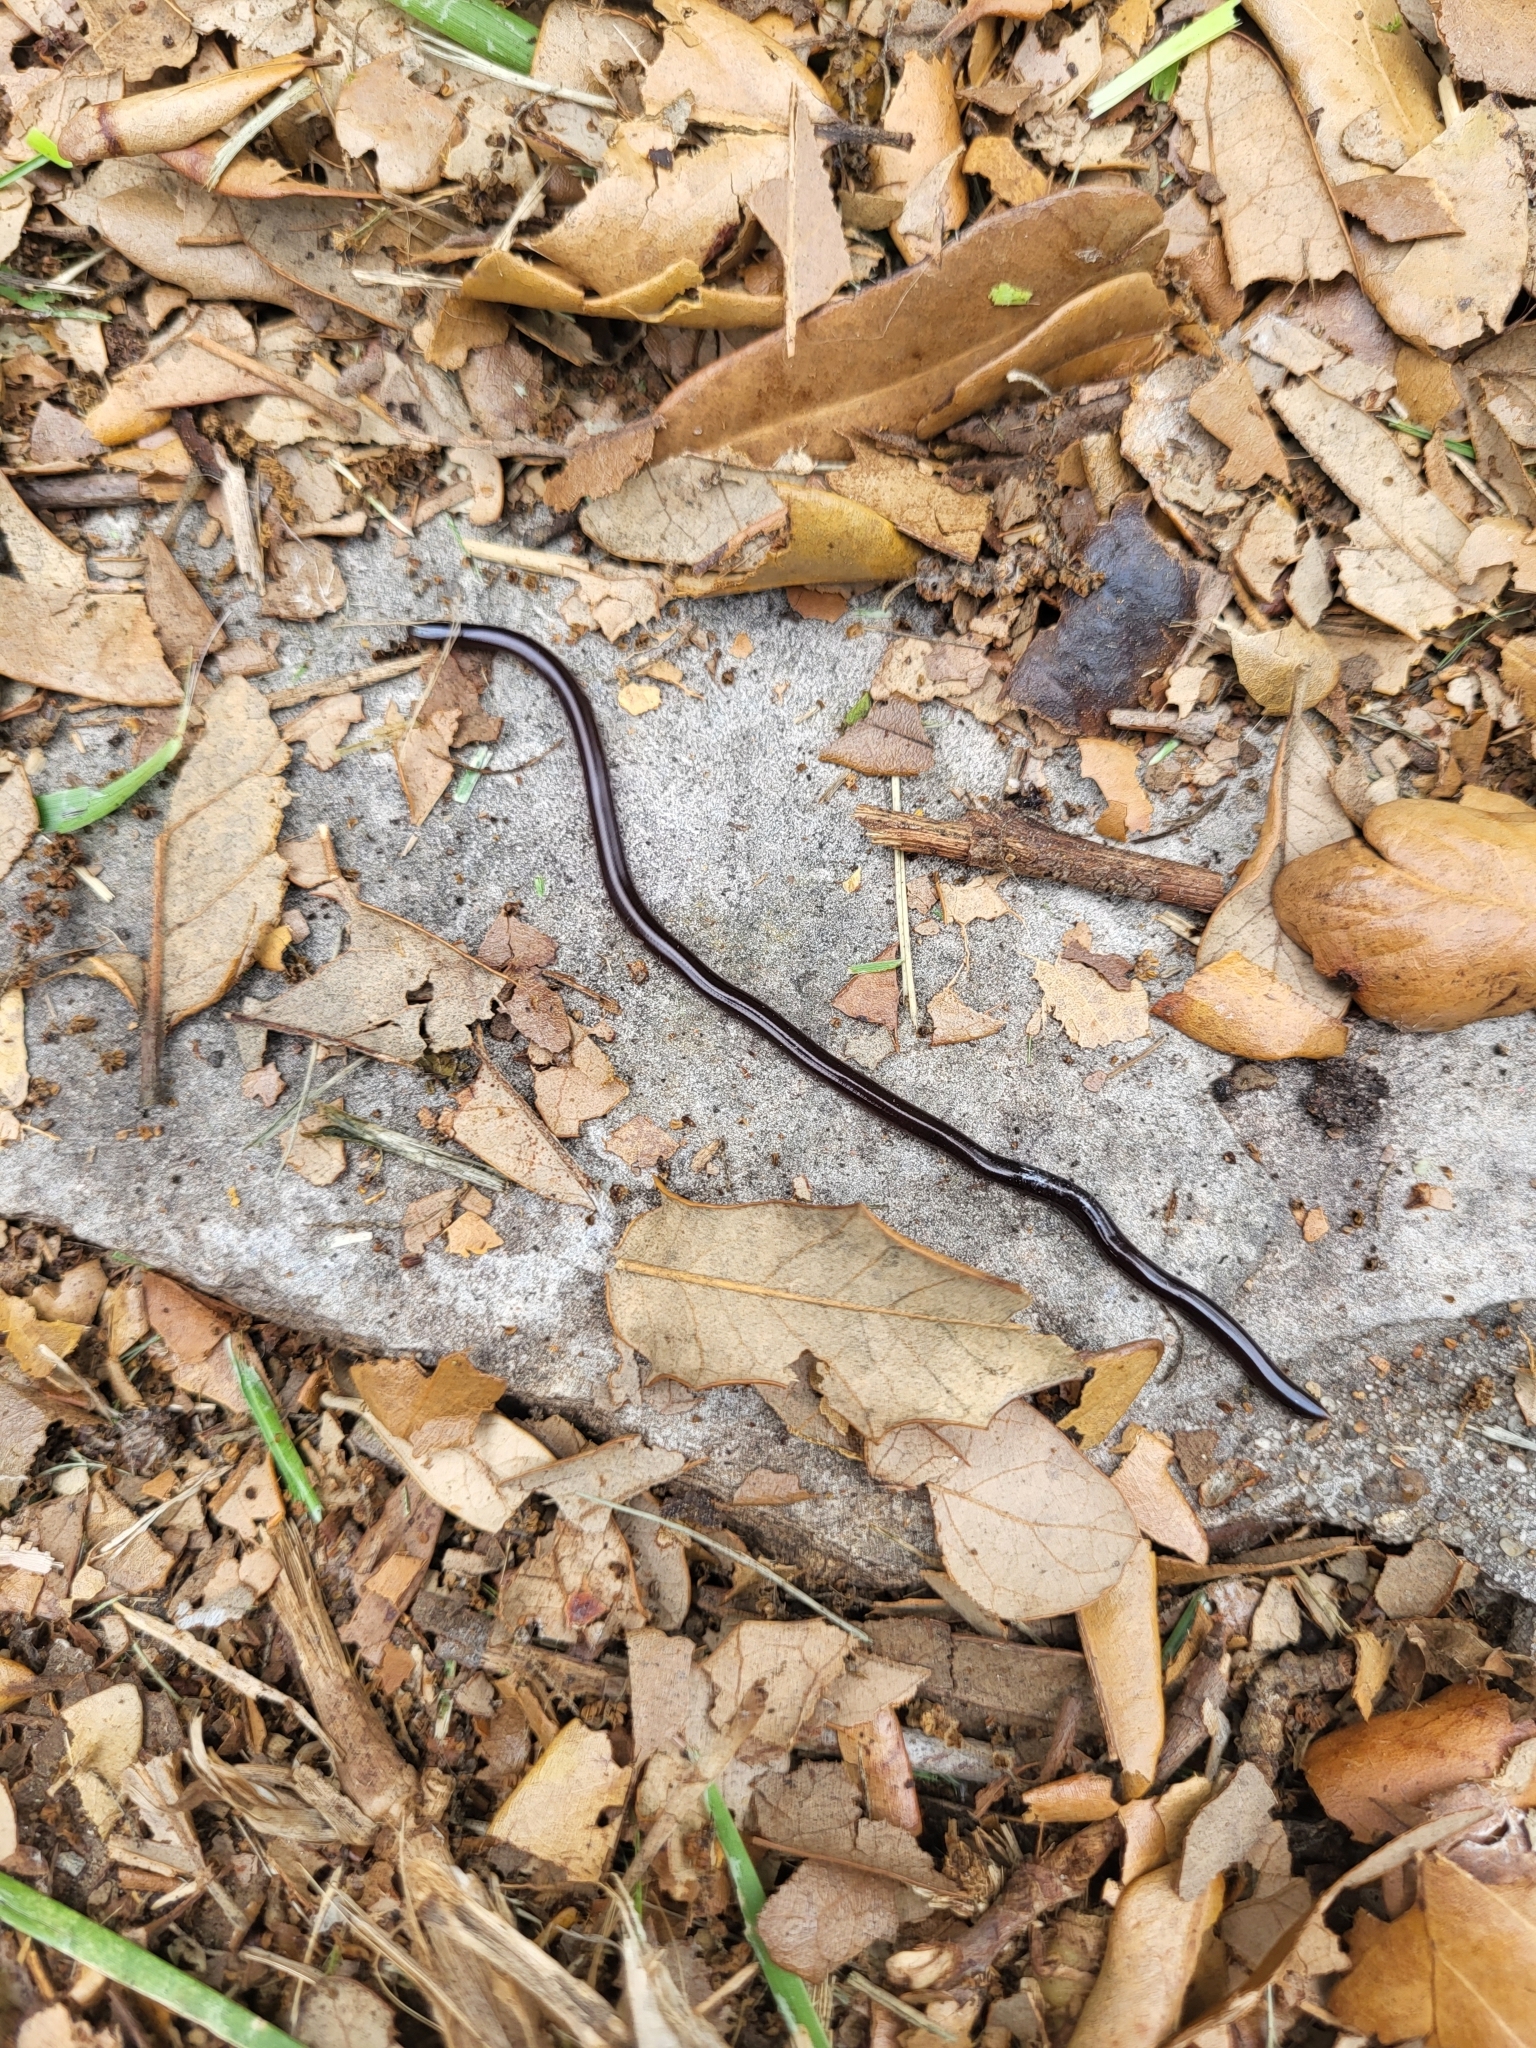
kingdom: Animalia
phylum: Chordata
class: Squamata
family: Typhlopidae
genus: Indotyphlops
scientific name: Indotyphlops braminus
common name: Brahminy blindsnake
